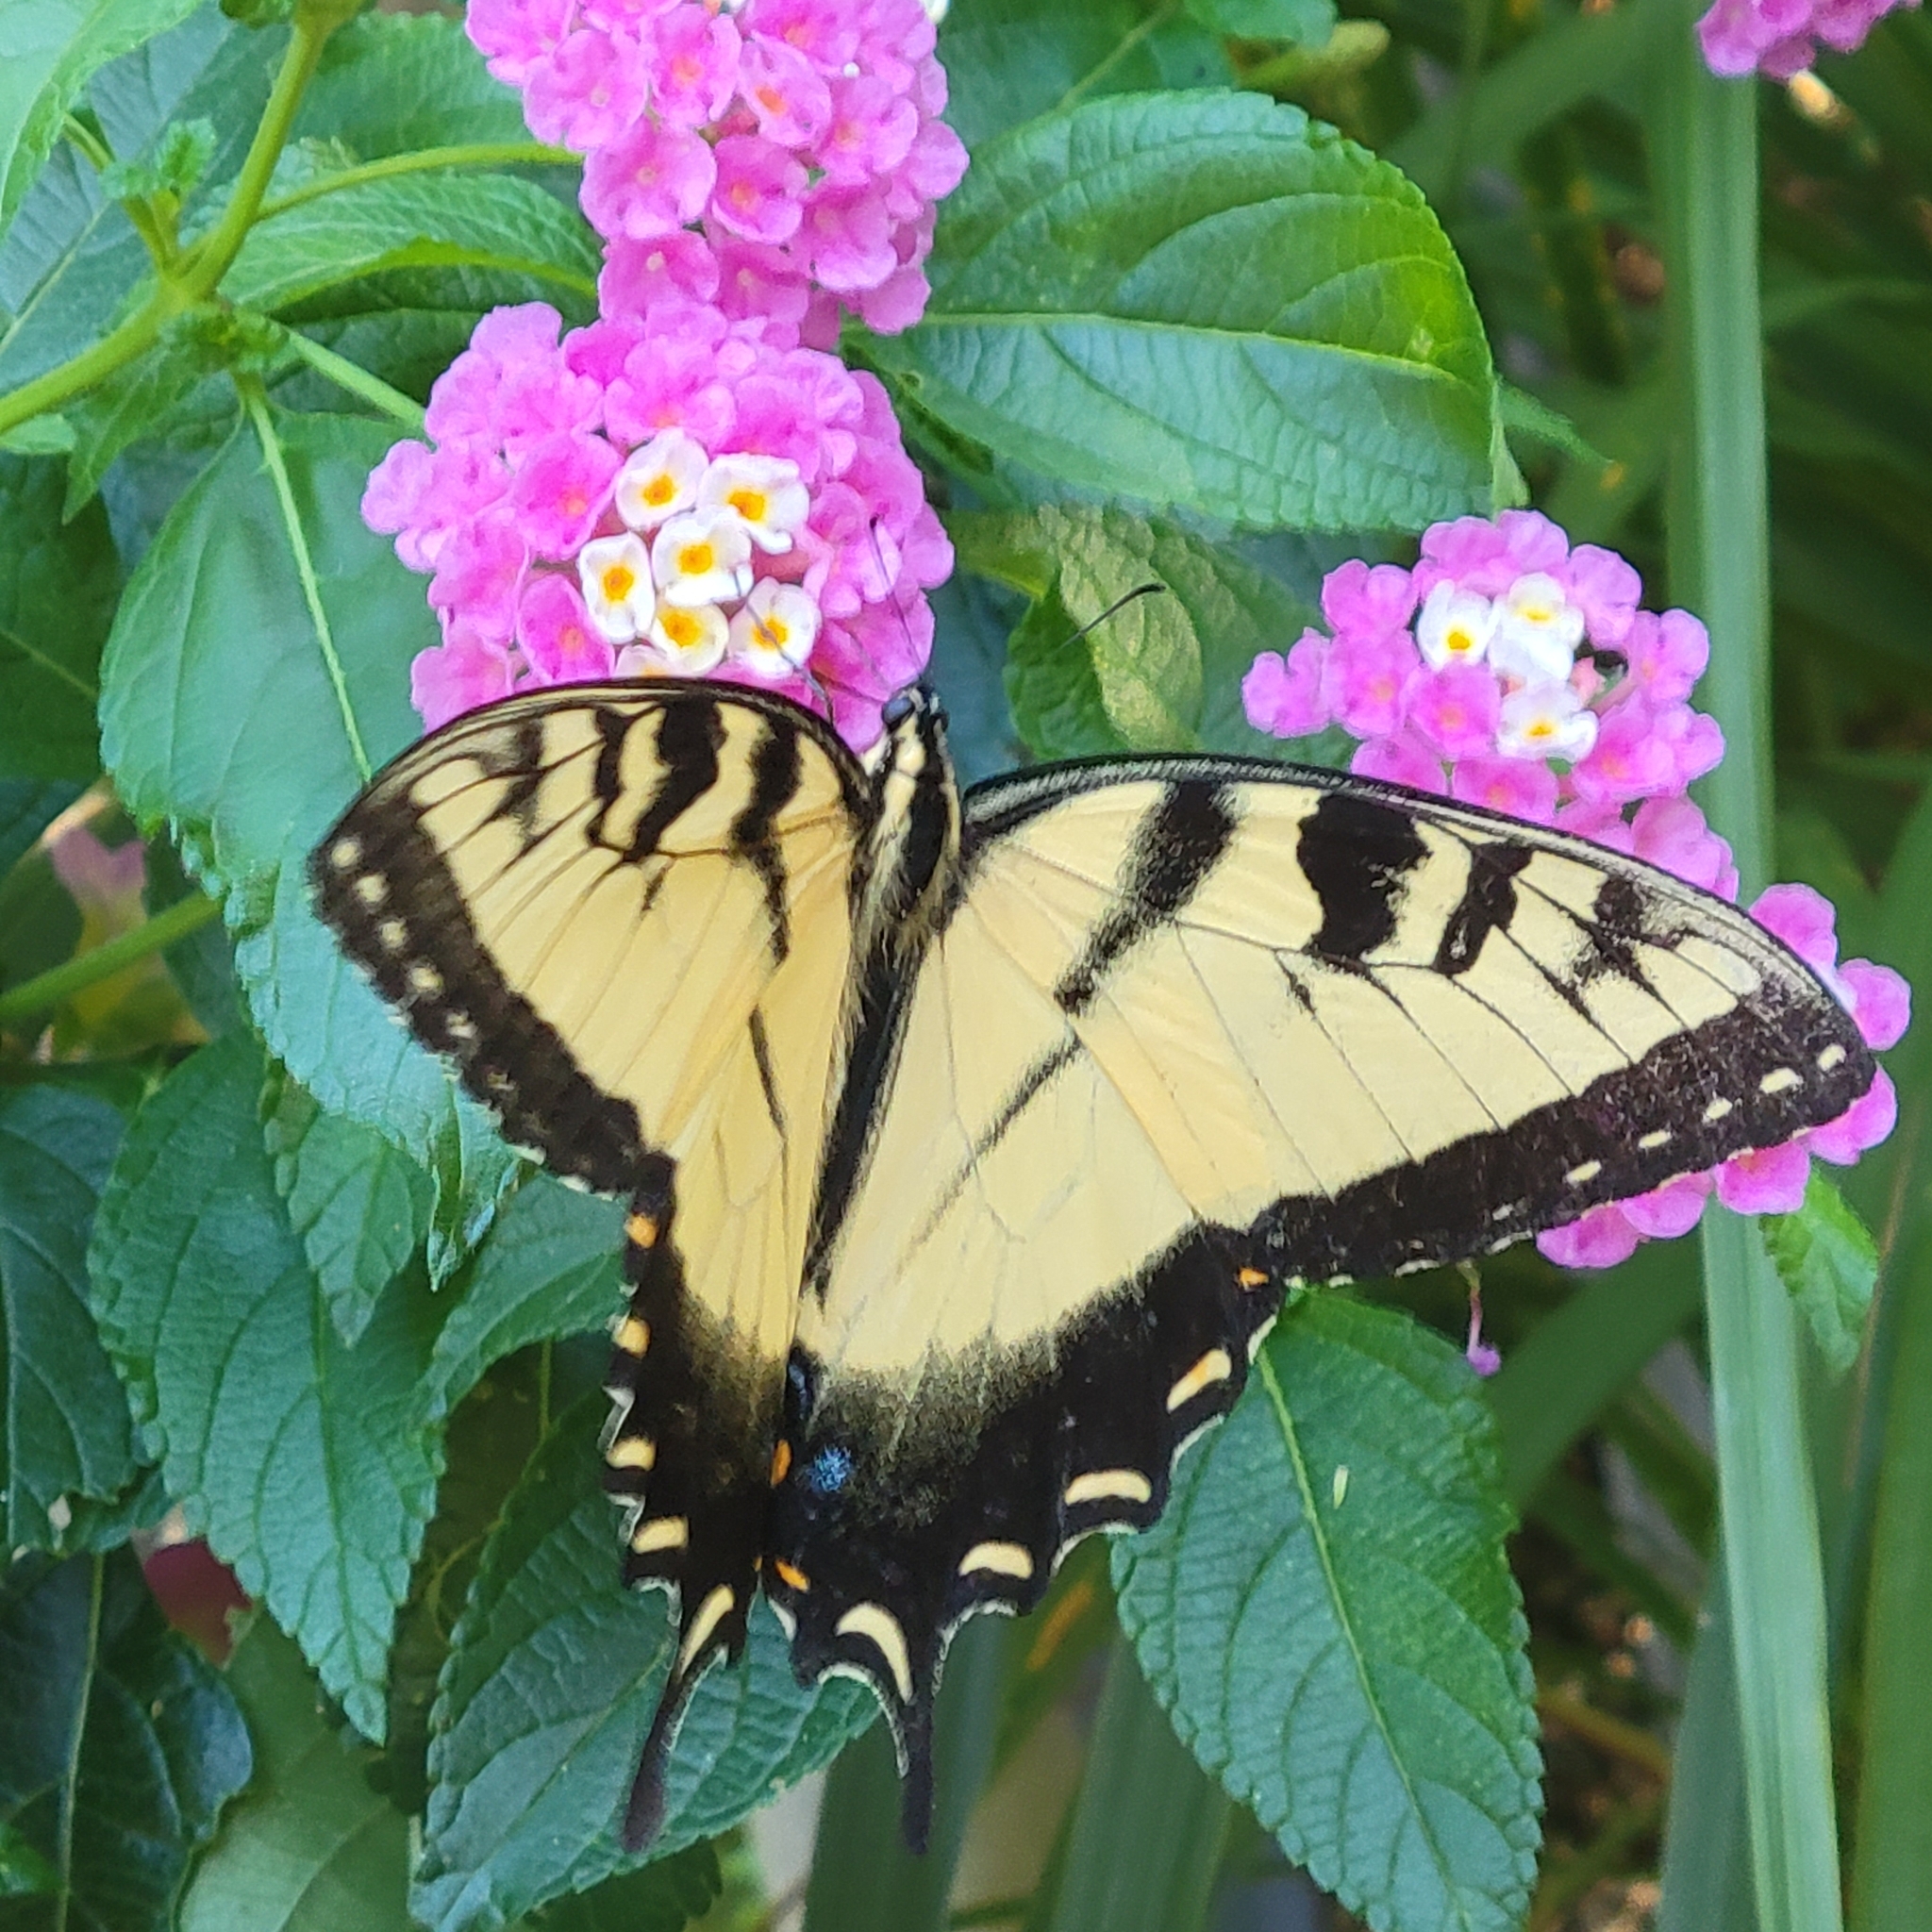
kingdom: Animalia
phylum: Arthropoda
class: Insecta
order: Lepidoptera
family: Papilionidae
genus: Papilio
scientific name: Papilio glaucus
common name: Tiger swallowtail
